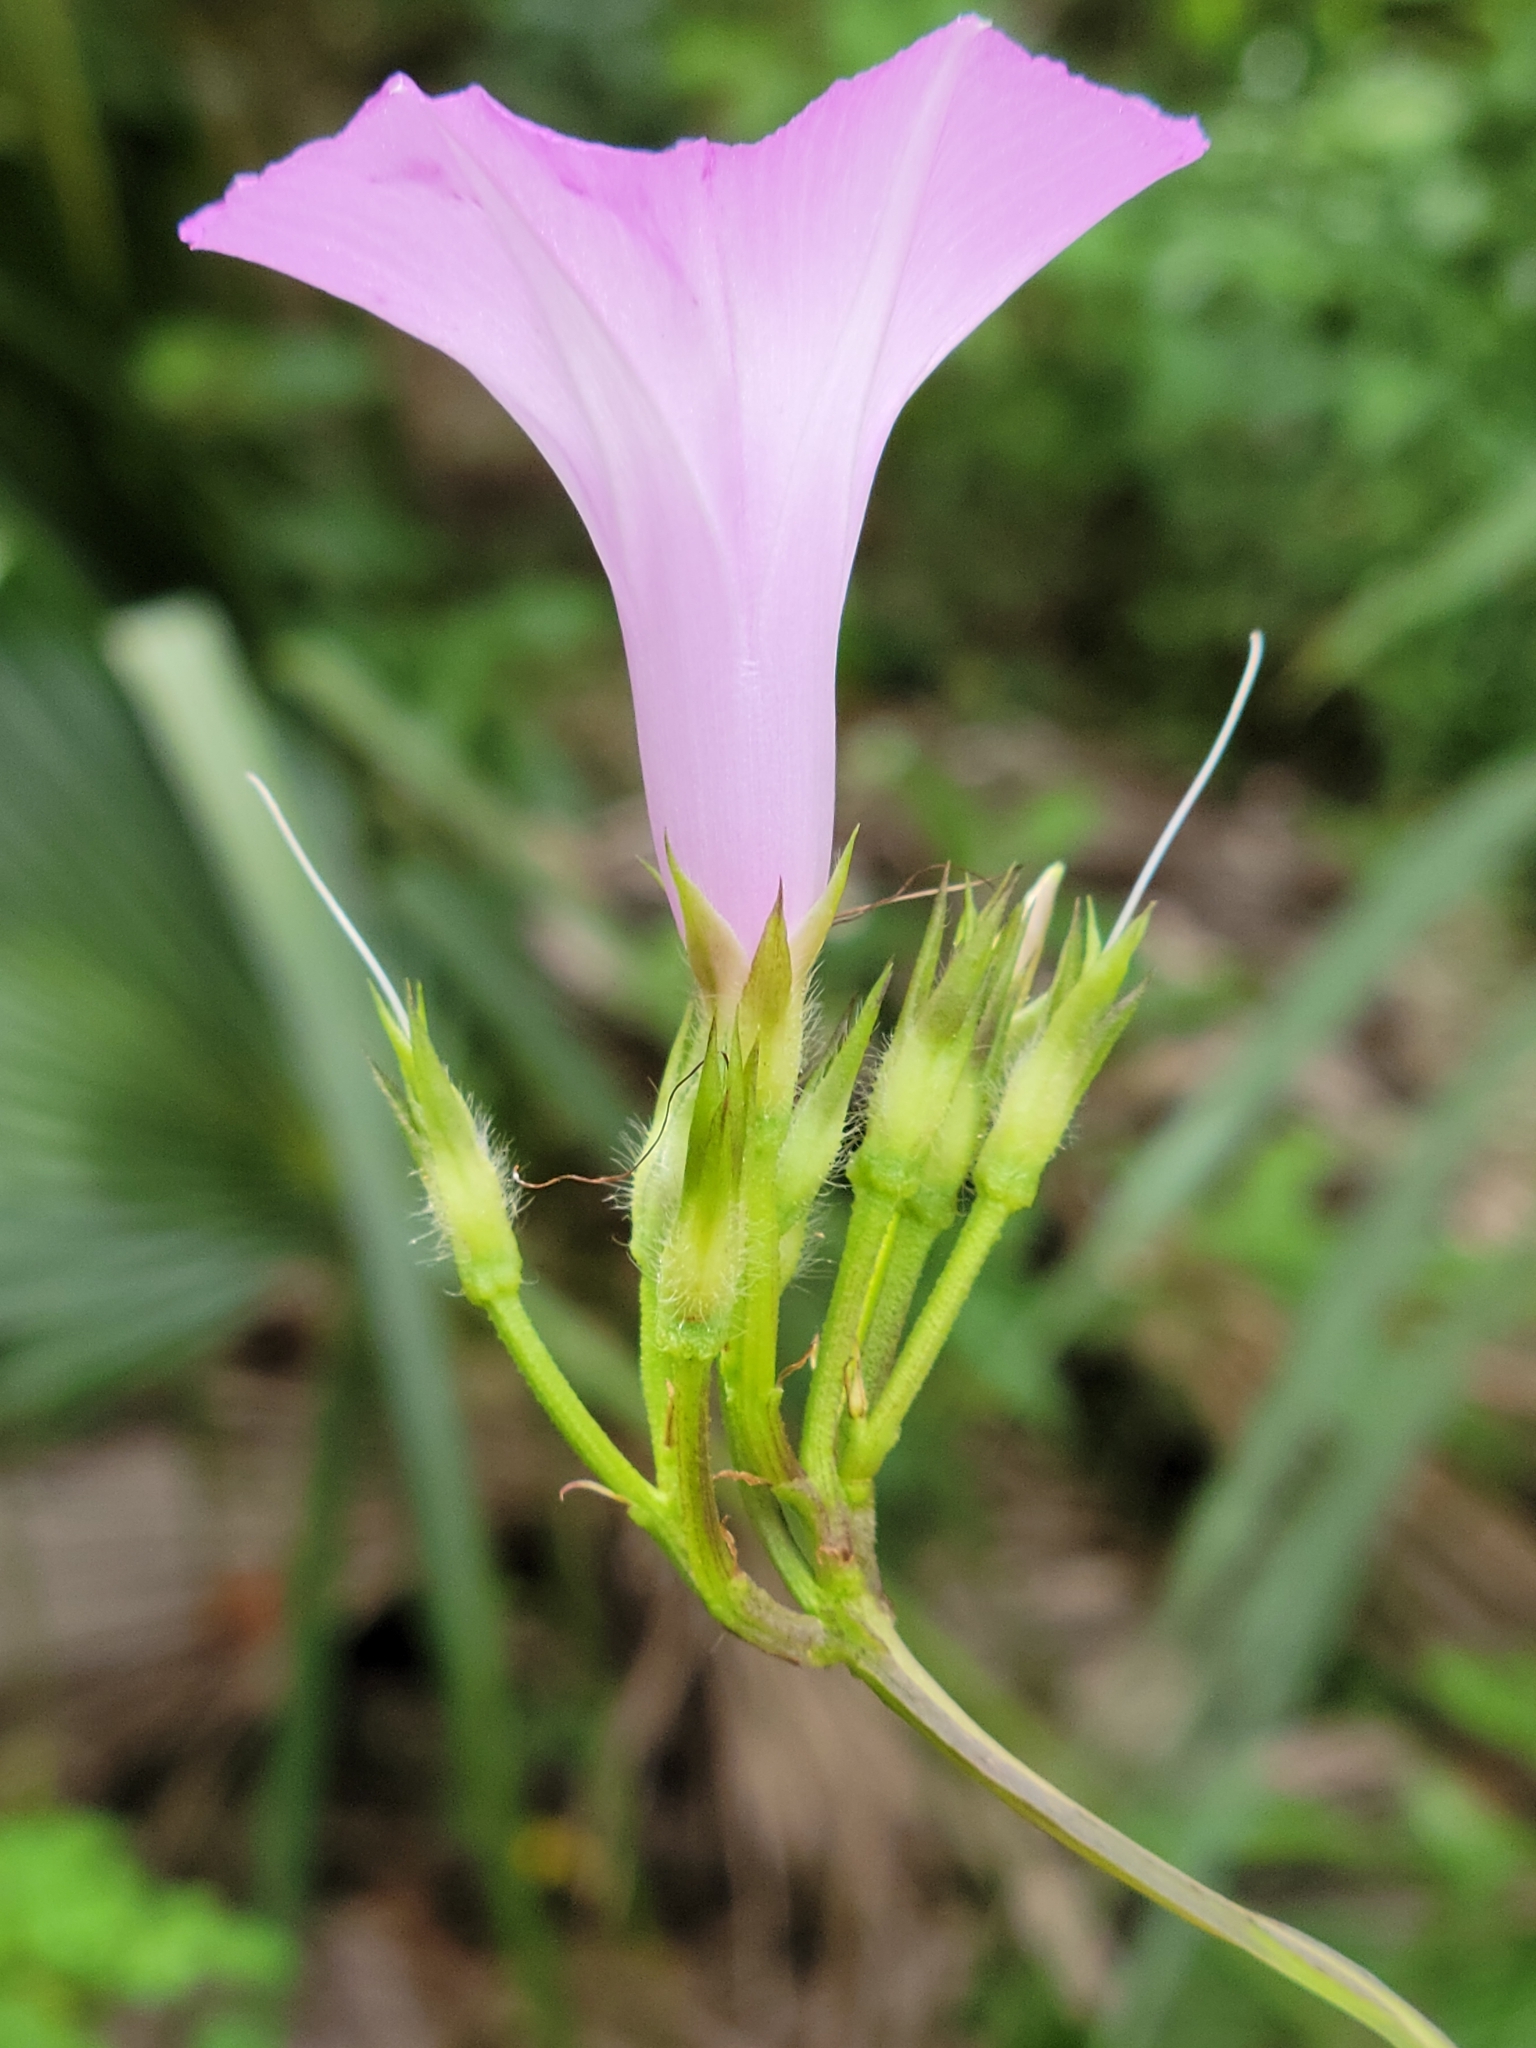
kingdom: Plantae
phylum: Tracheophyta
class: Magnoliopsida
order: Solanales
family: Convolvulaceae
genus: Ipomoea
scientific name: Ipomoea cordatotriloba
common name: Cotton morning glory
